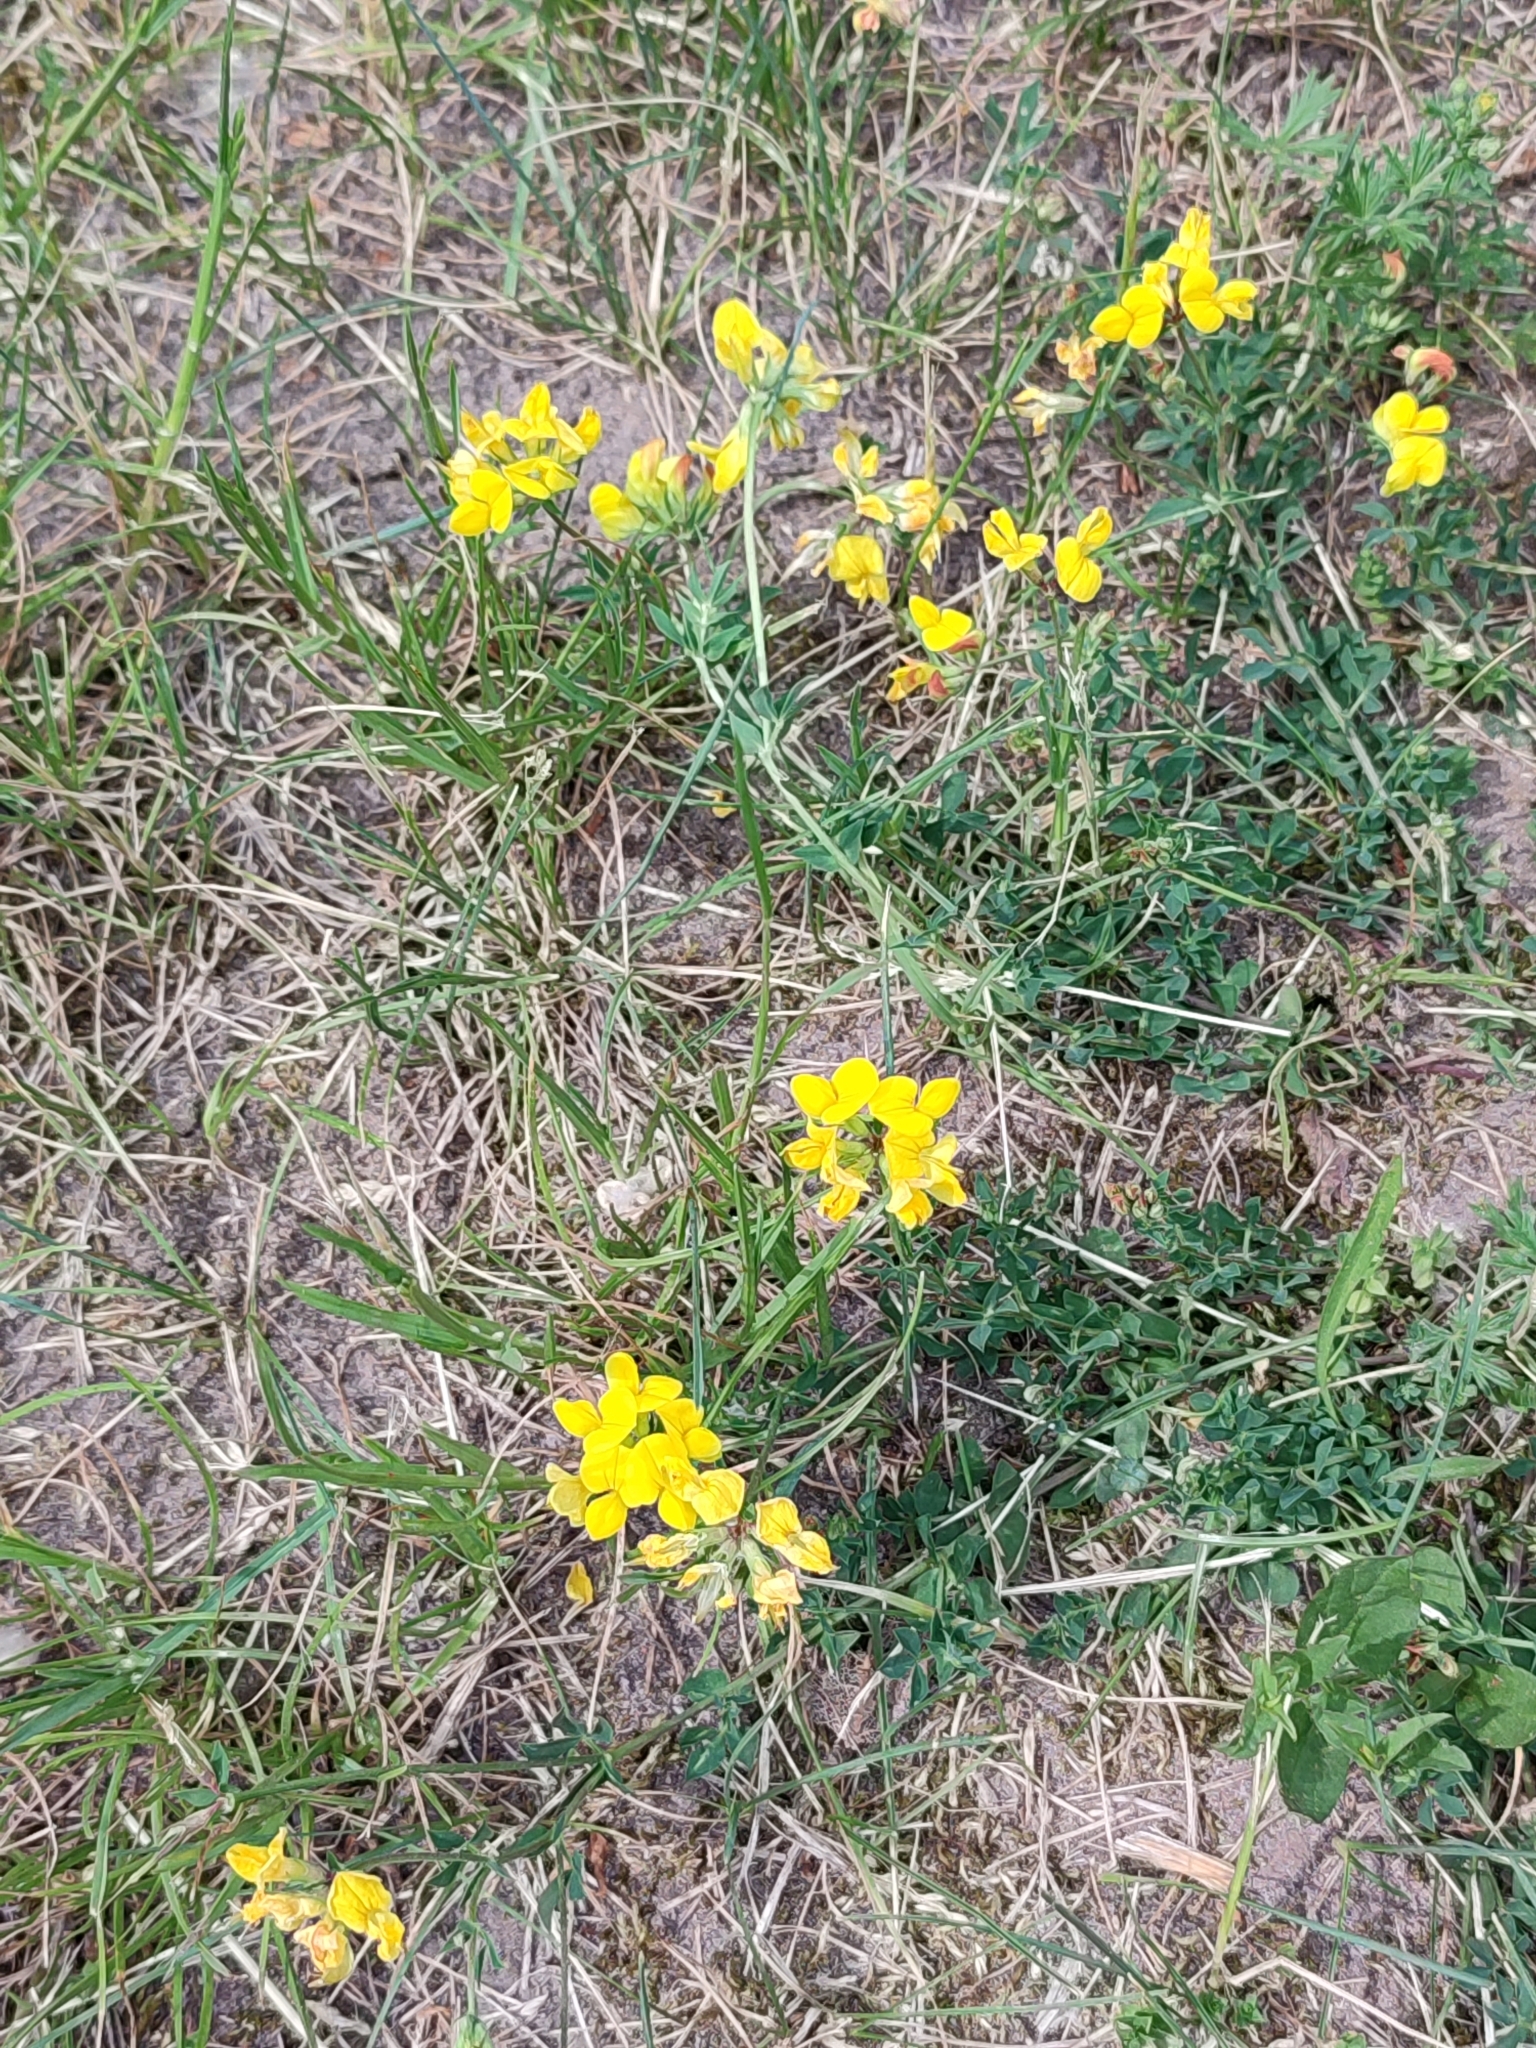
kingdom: Plantae
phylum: Tracheophyta
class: Magnoliopsida
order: Fabales
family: Fabaceae
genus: Lotus
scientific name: Lotus corniculatus
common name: Common bird's-foot-trefoil
